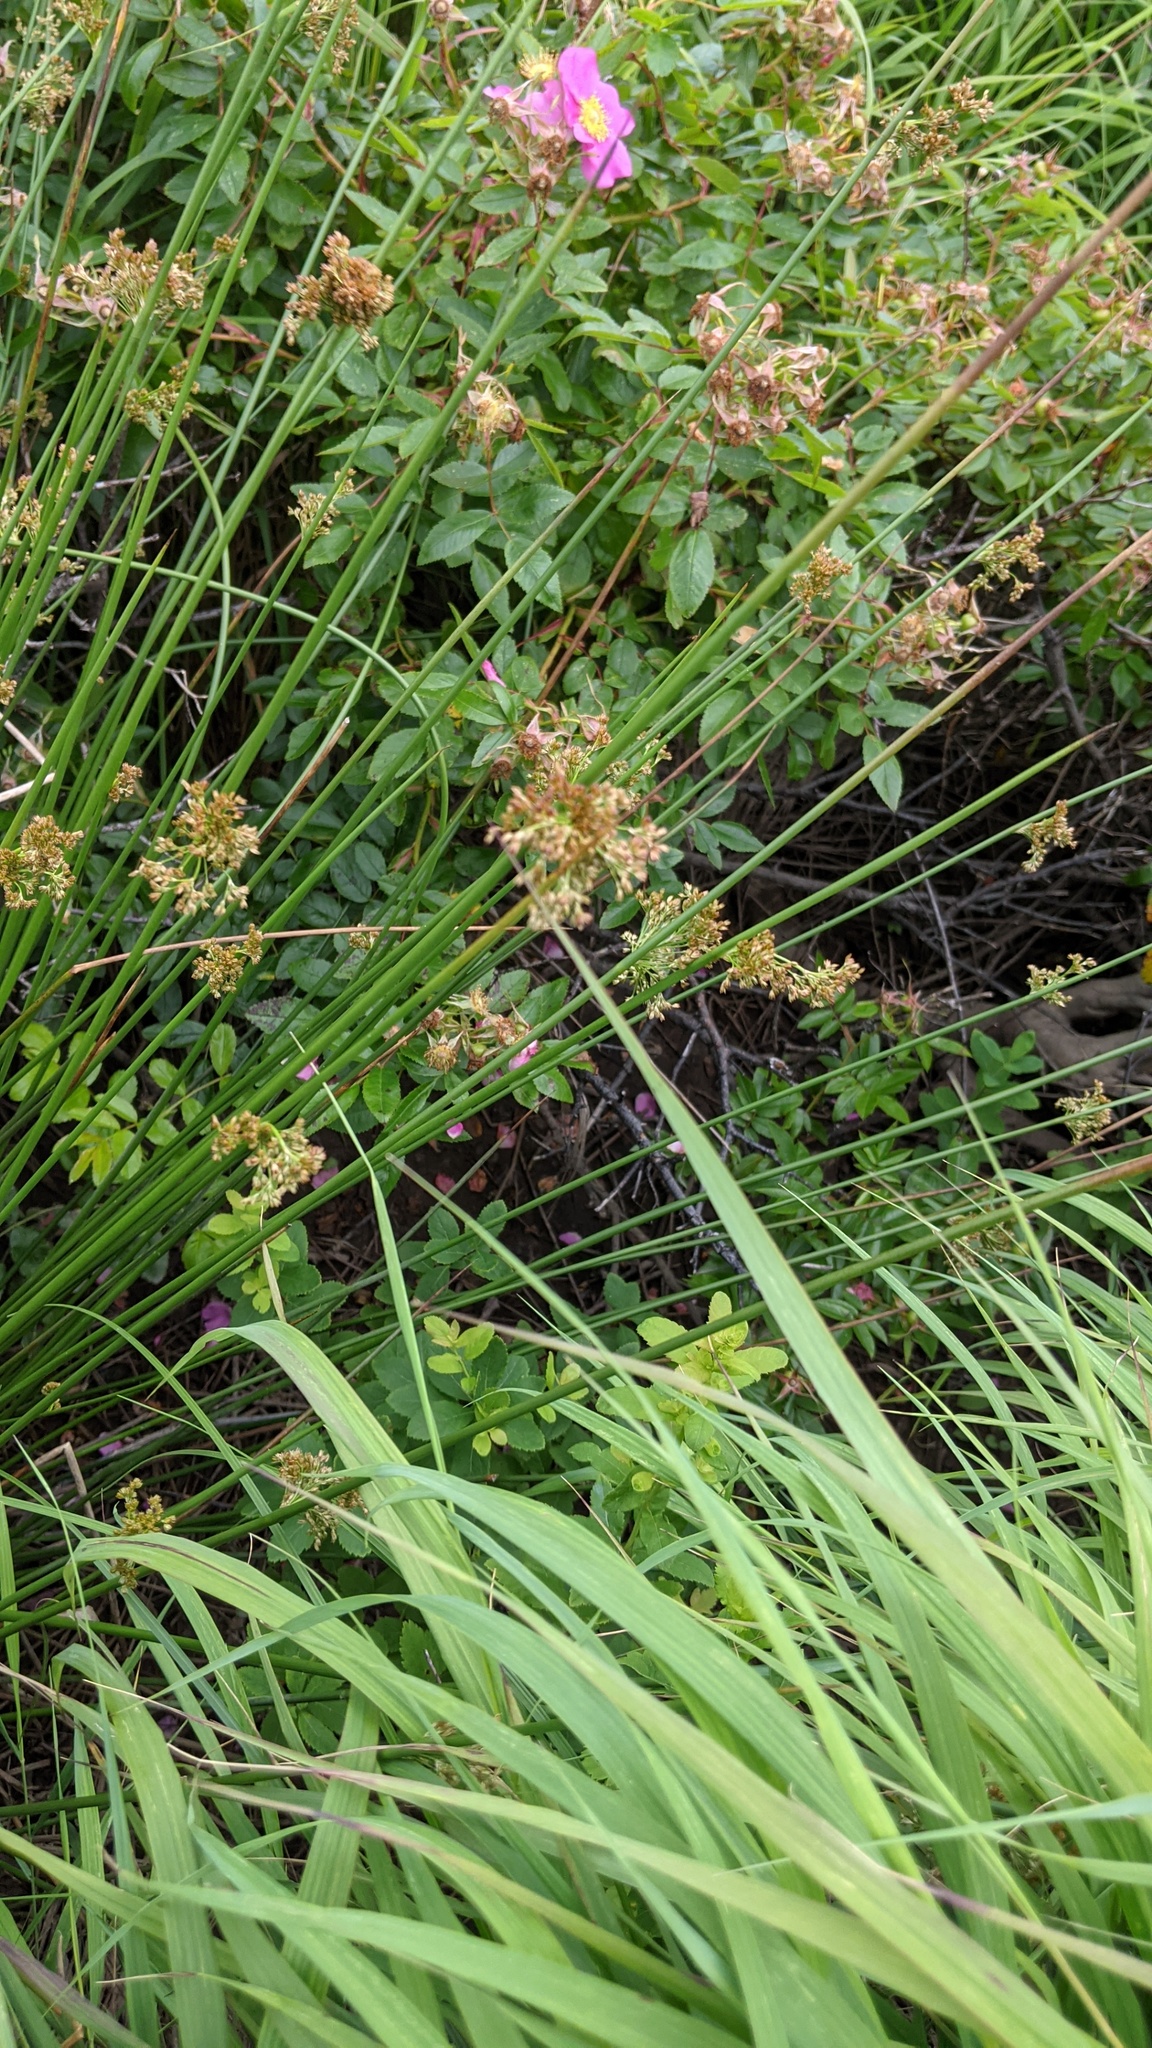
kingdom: Plantae
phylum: Tracheophyta
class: Liliopsida
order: Poales
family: Juncaceae
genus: Juncus
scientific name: Juncus effusus
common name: Soft rush
